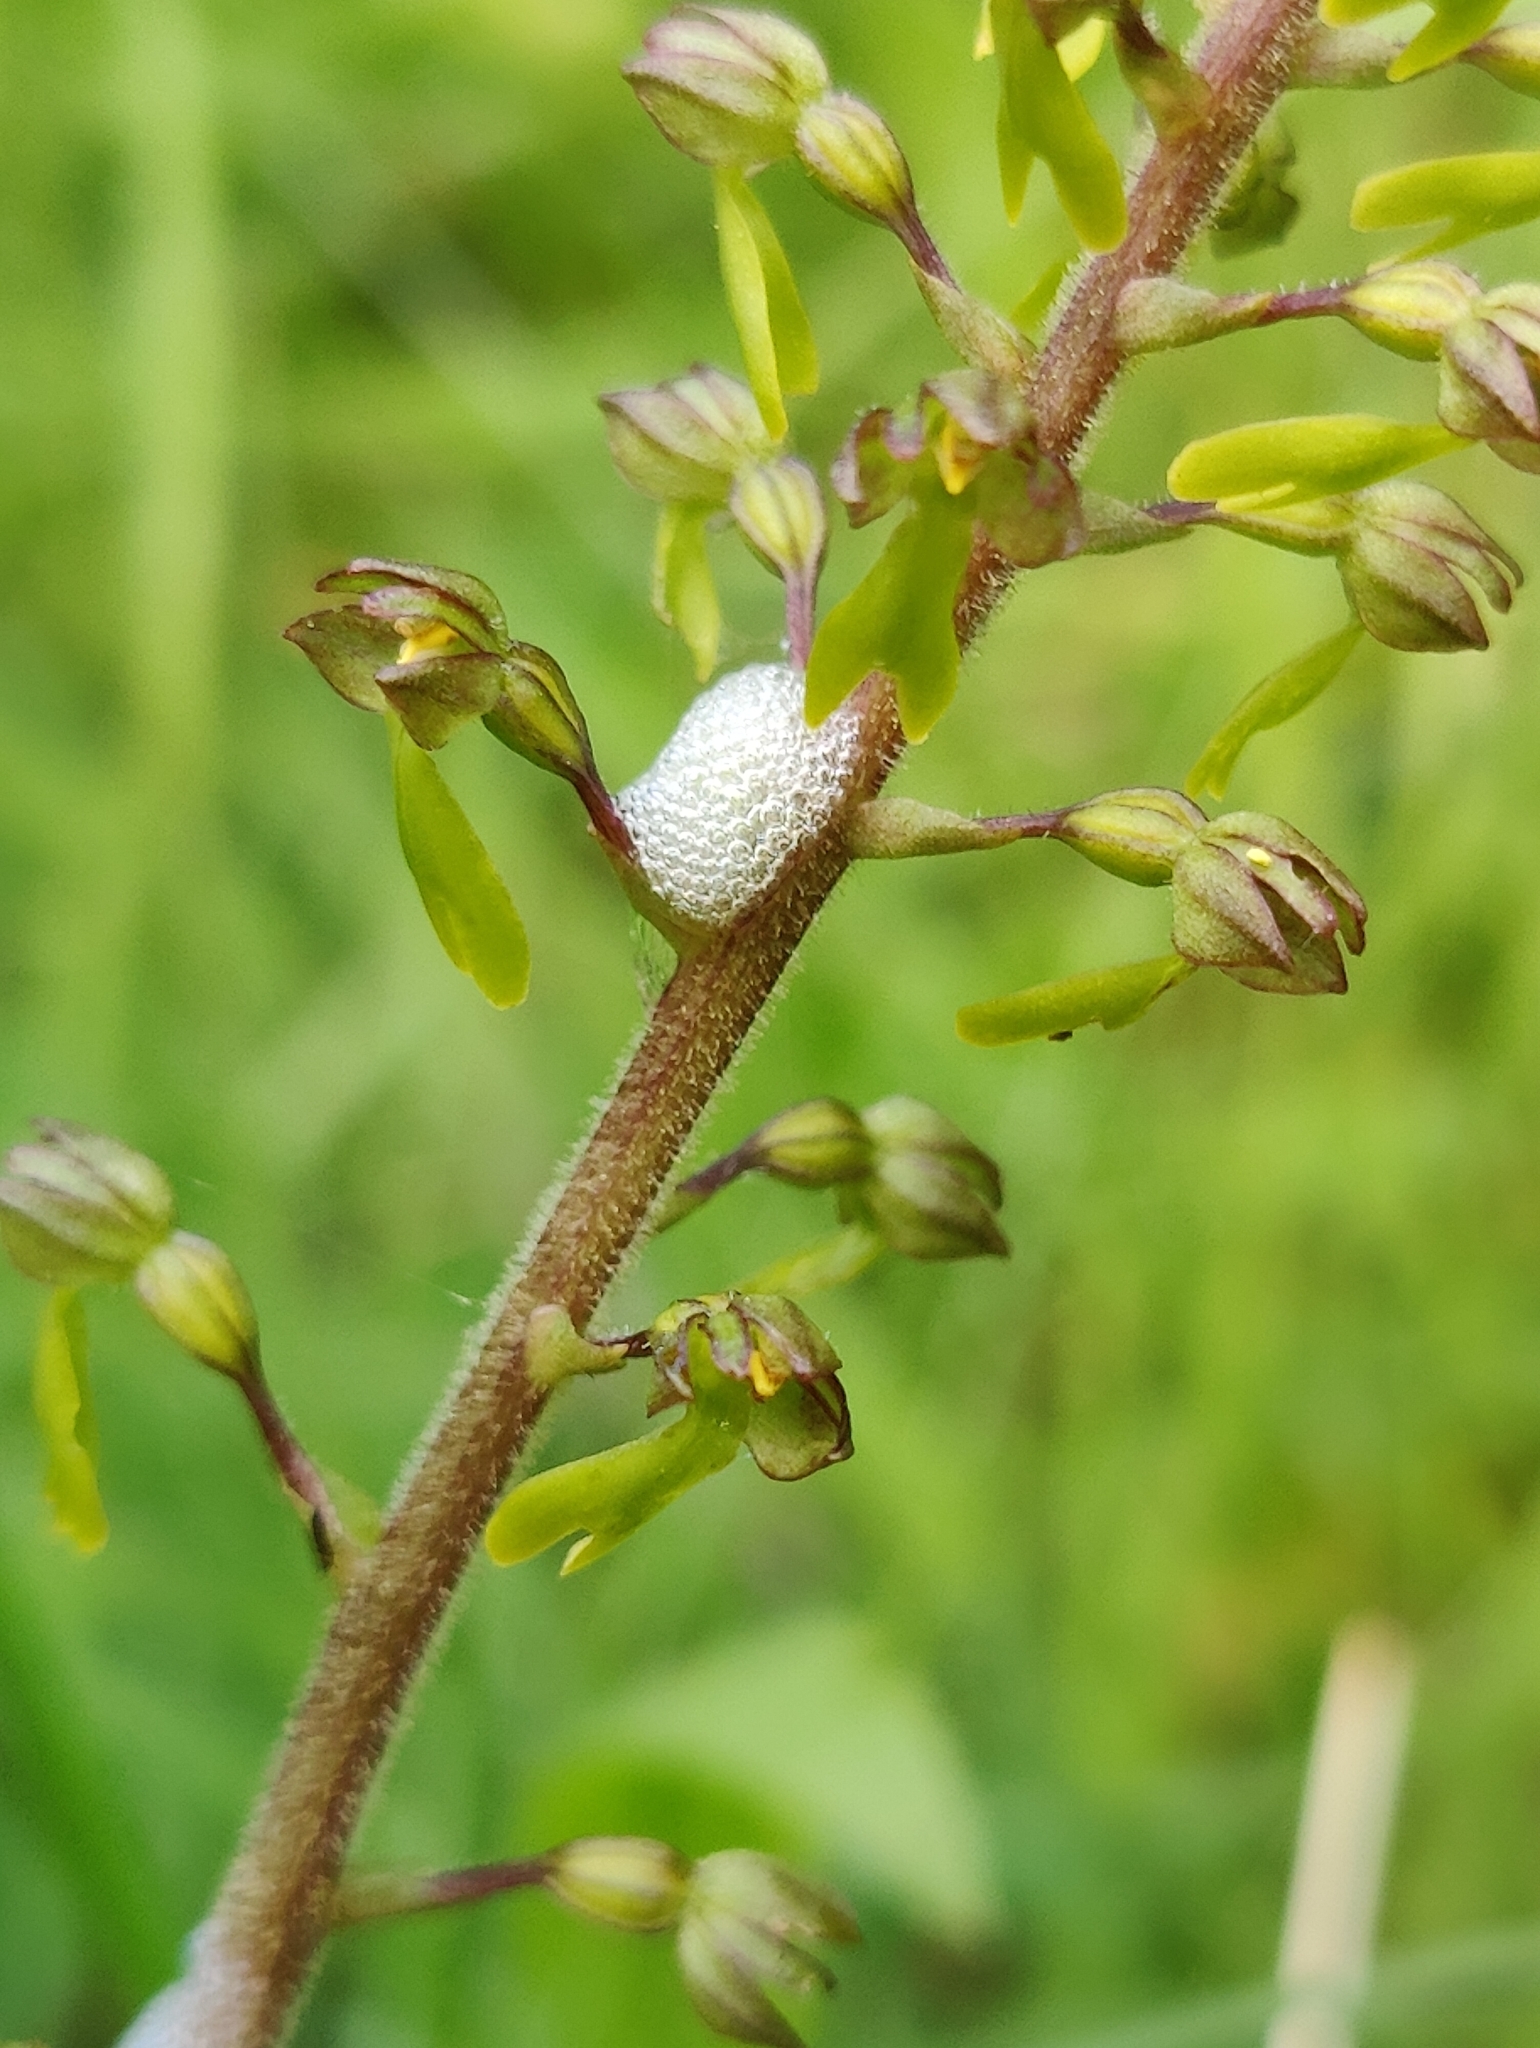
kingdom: Plantae
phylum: Tracheophyta
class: Liliopsida
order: Asparagales
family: Orchidaceae
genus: Neottia
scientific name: Neottia ovata
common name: Common twayblade
